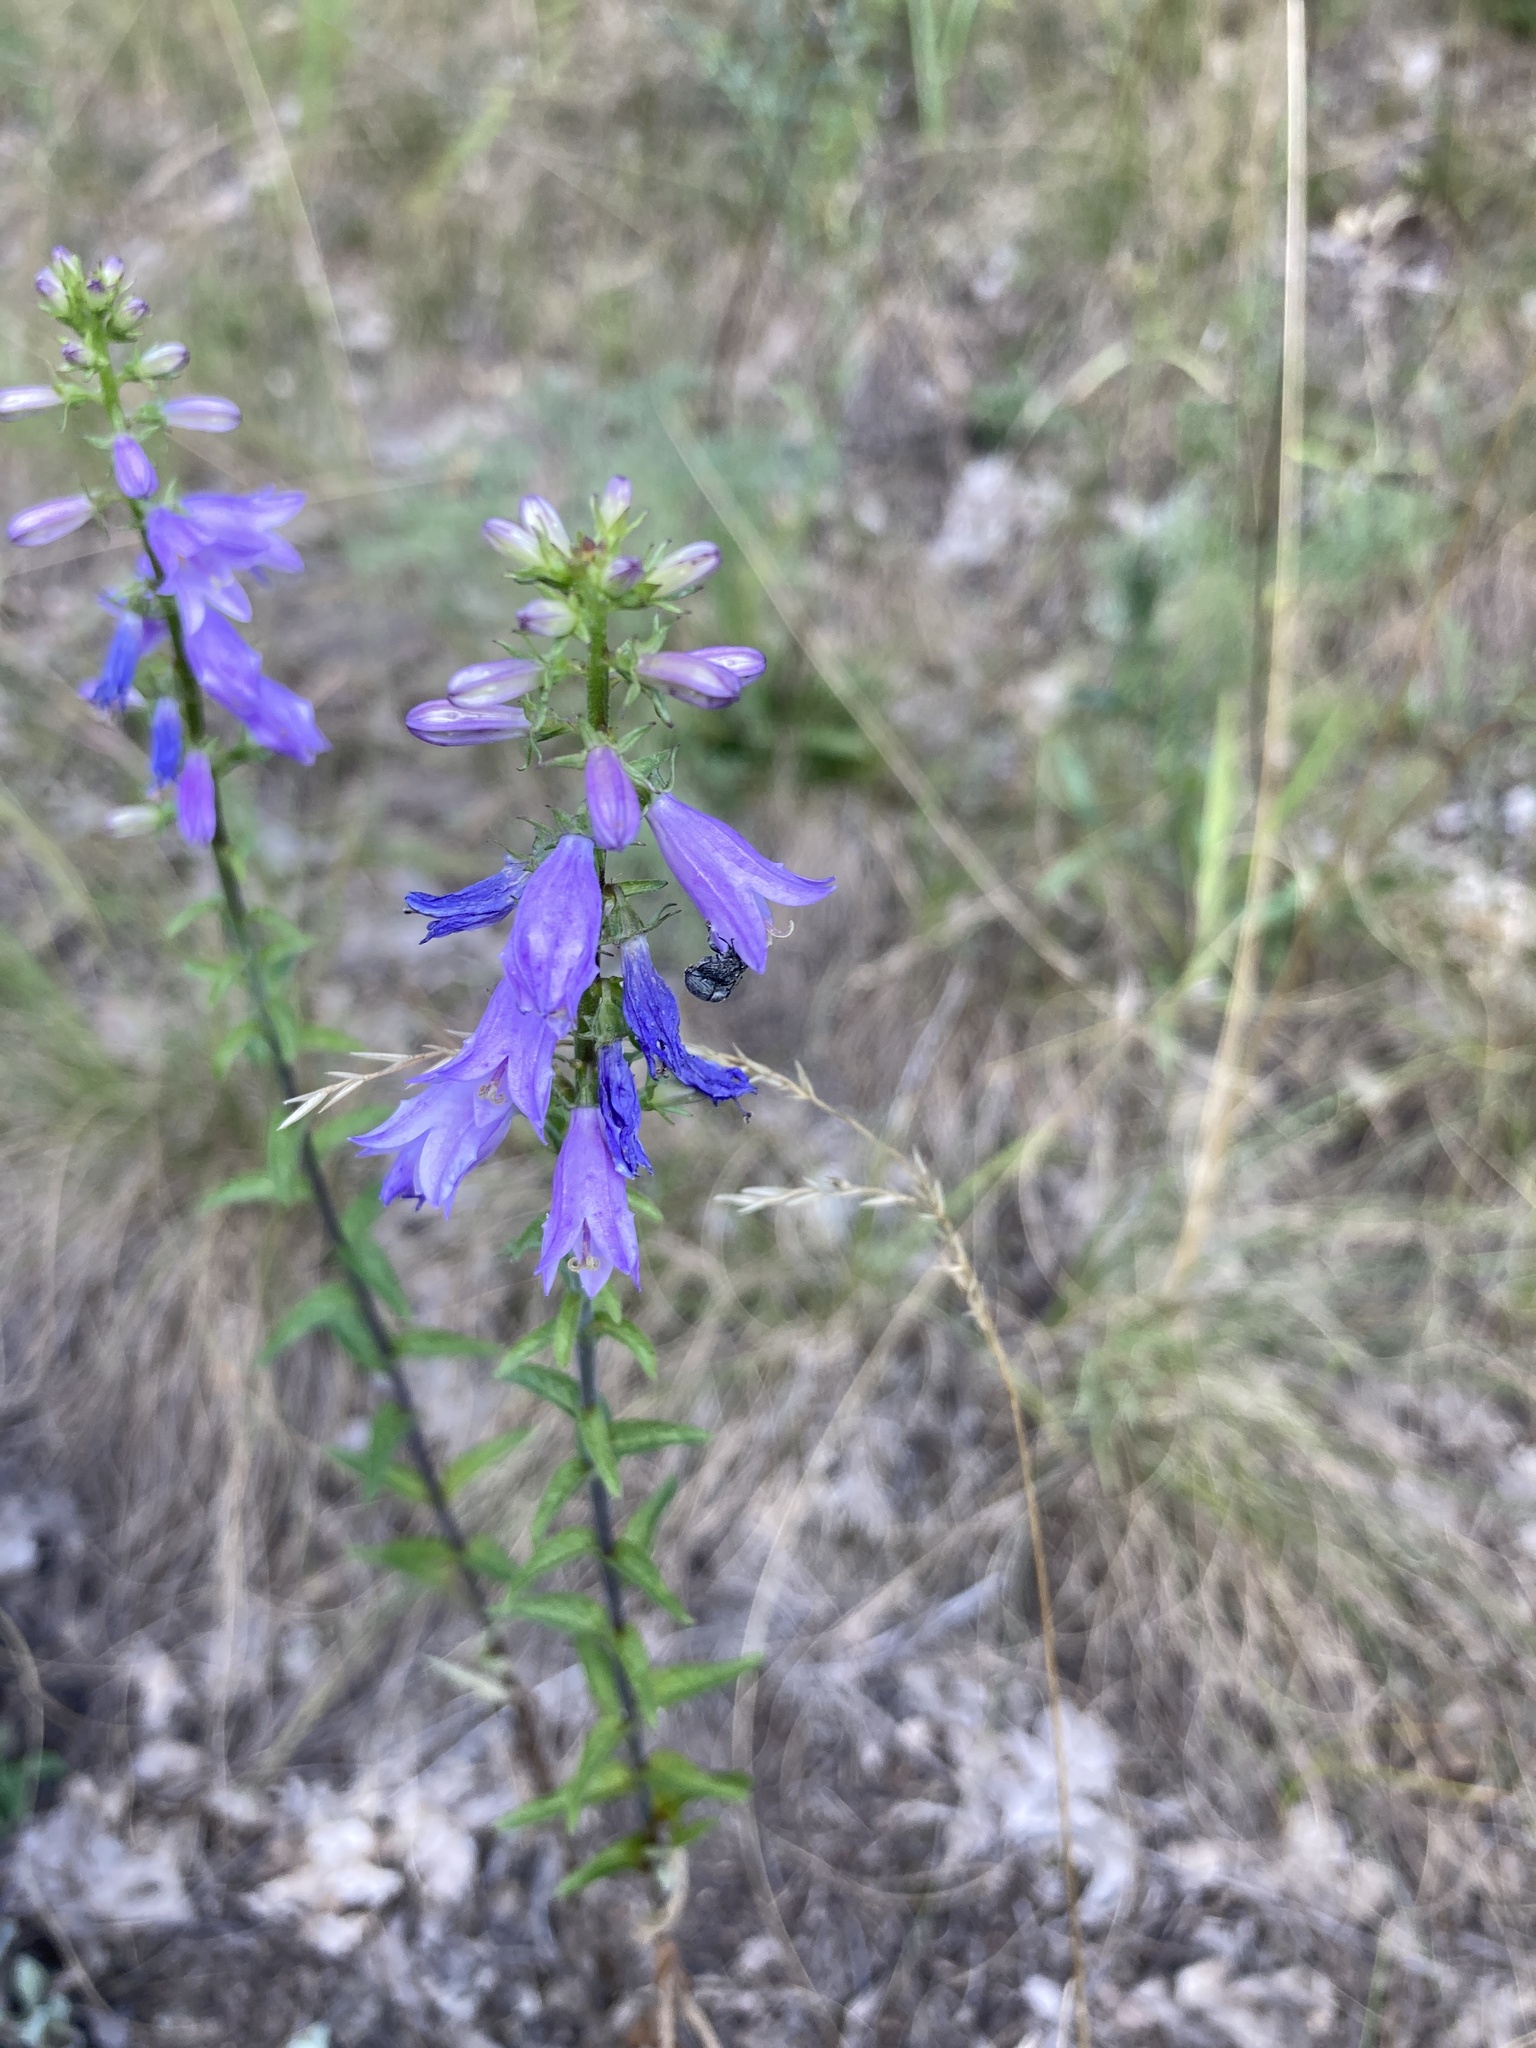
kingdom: Plantae
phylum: Tracheophyta
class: Magnoliopsida
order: Asterales
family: Campanulaceae
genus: Campanula
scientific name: Campanula bononiensis
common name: Pale bellflower
